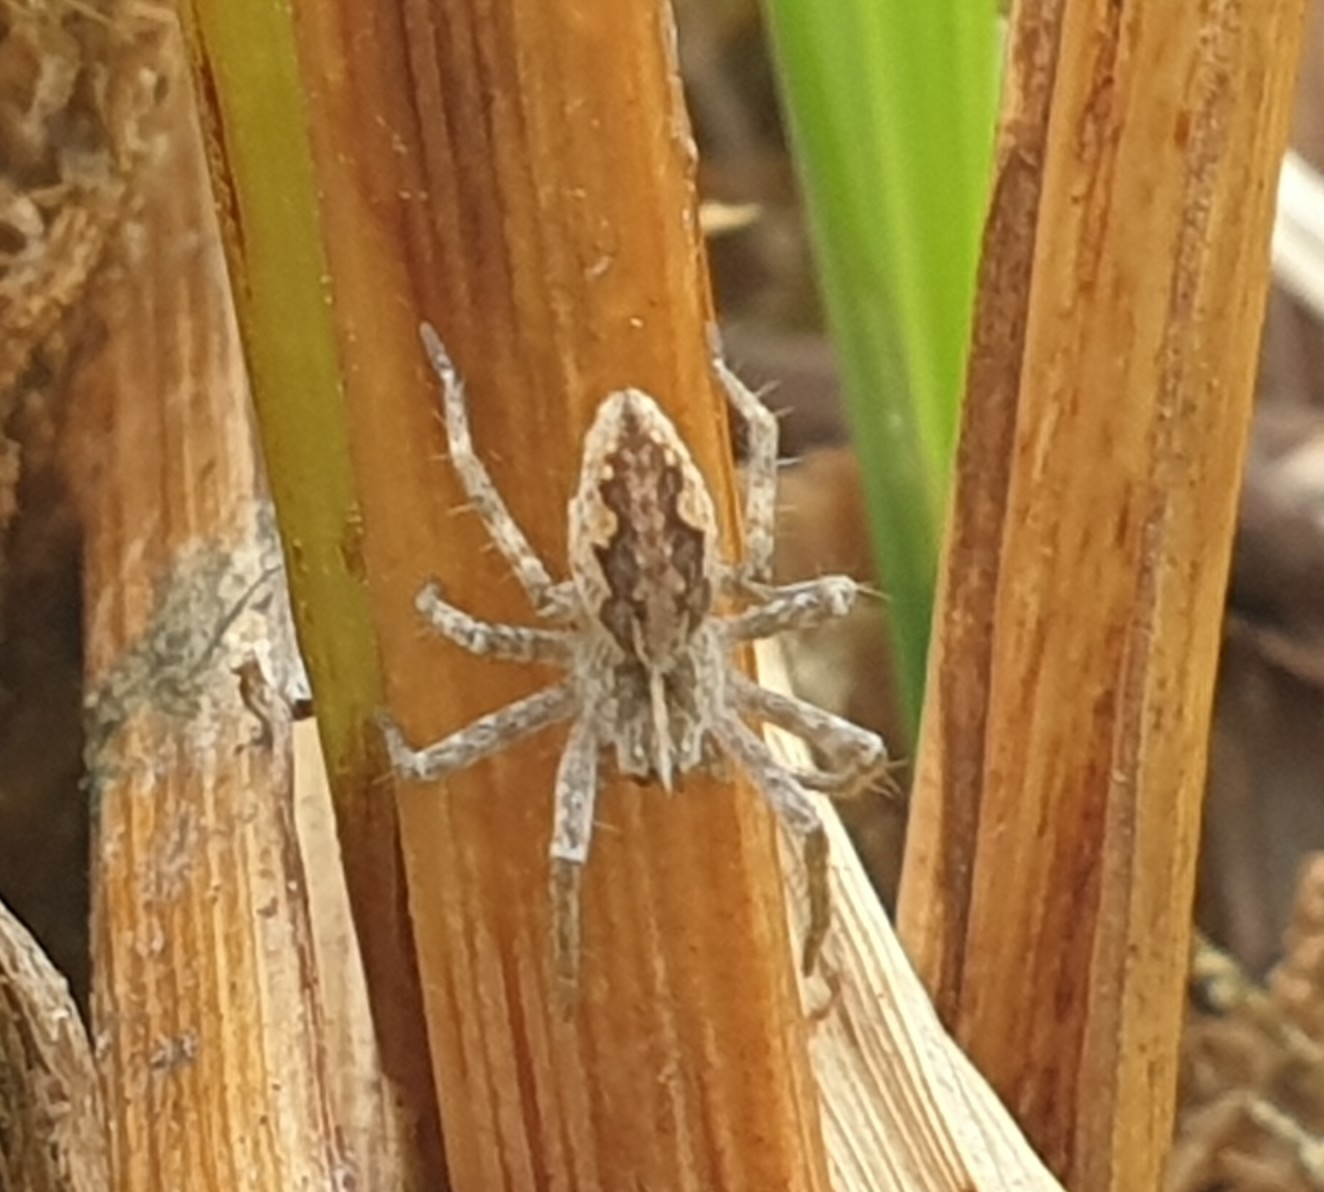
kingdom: Animalia
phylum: Arthropoda
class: Arachnida
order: Araneae
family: Pisauridae
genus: Pisaura
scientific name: Pisaura mirabilis
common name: Tent spider
